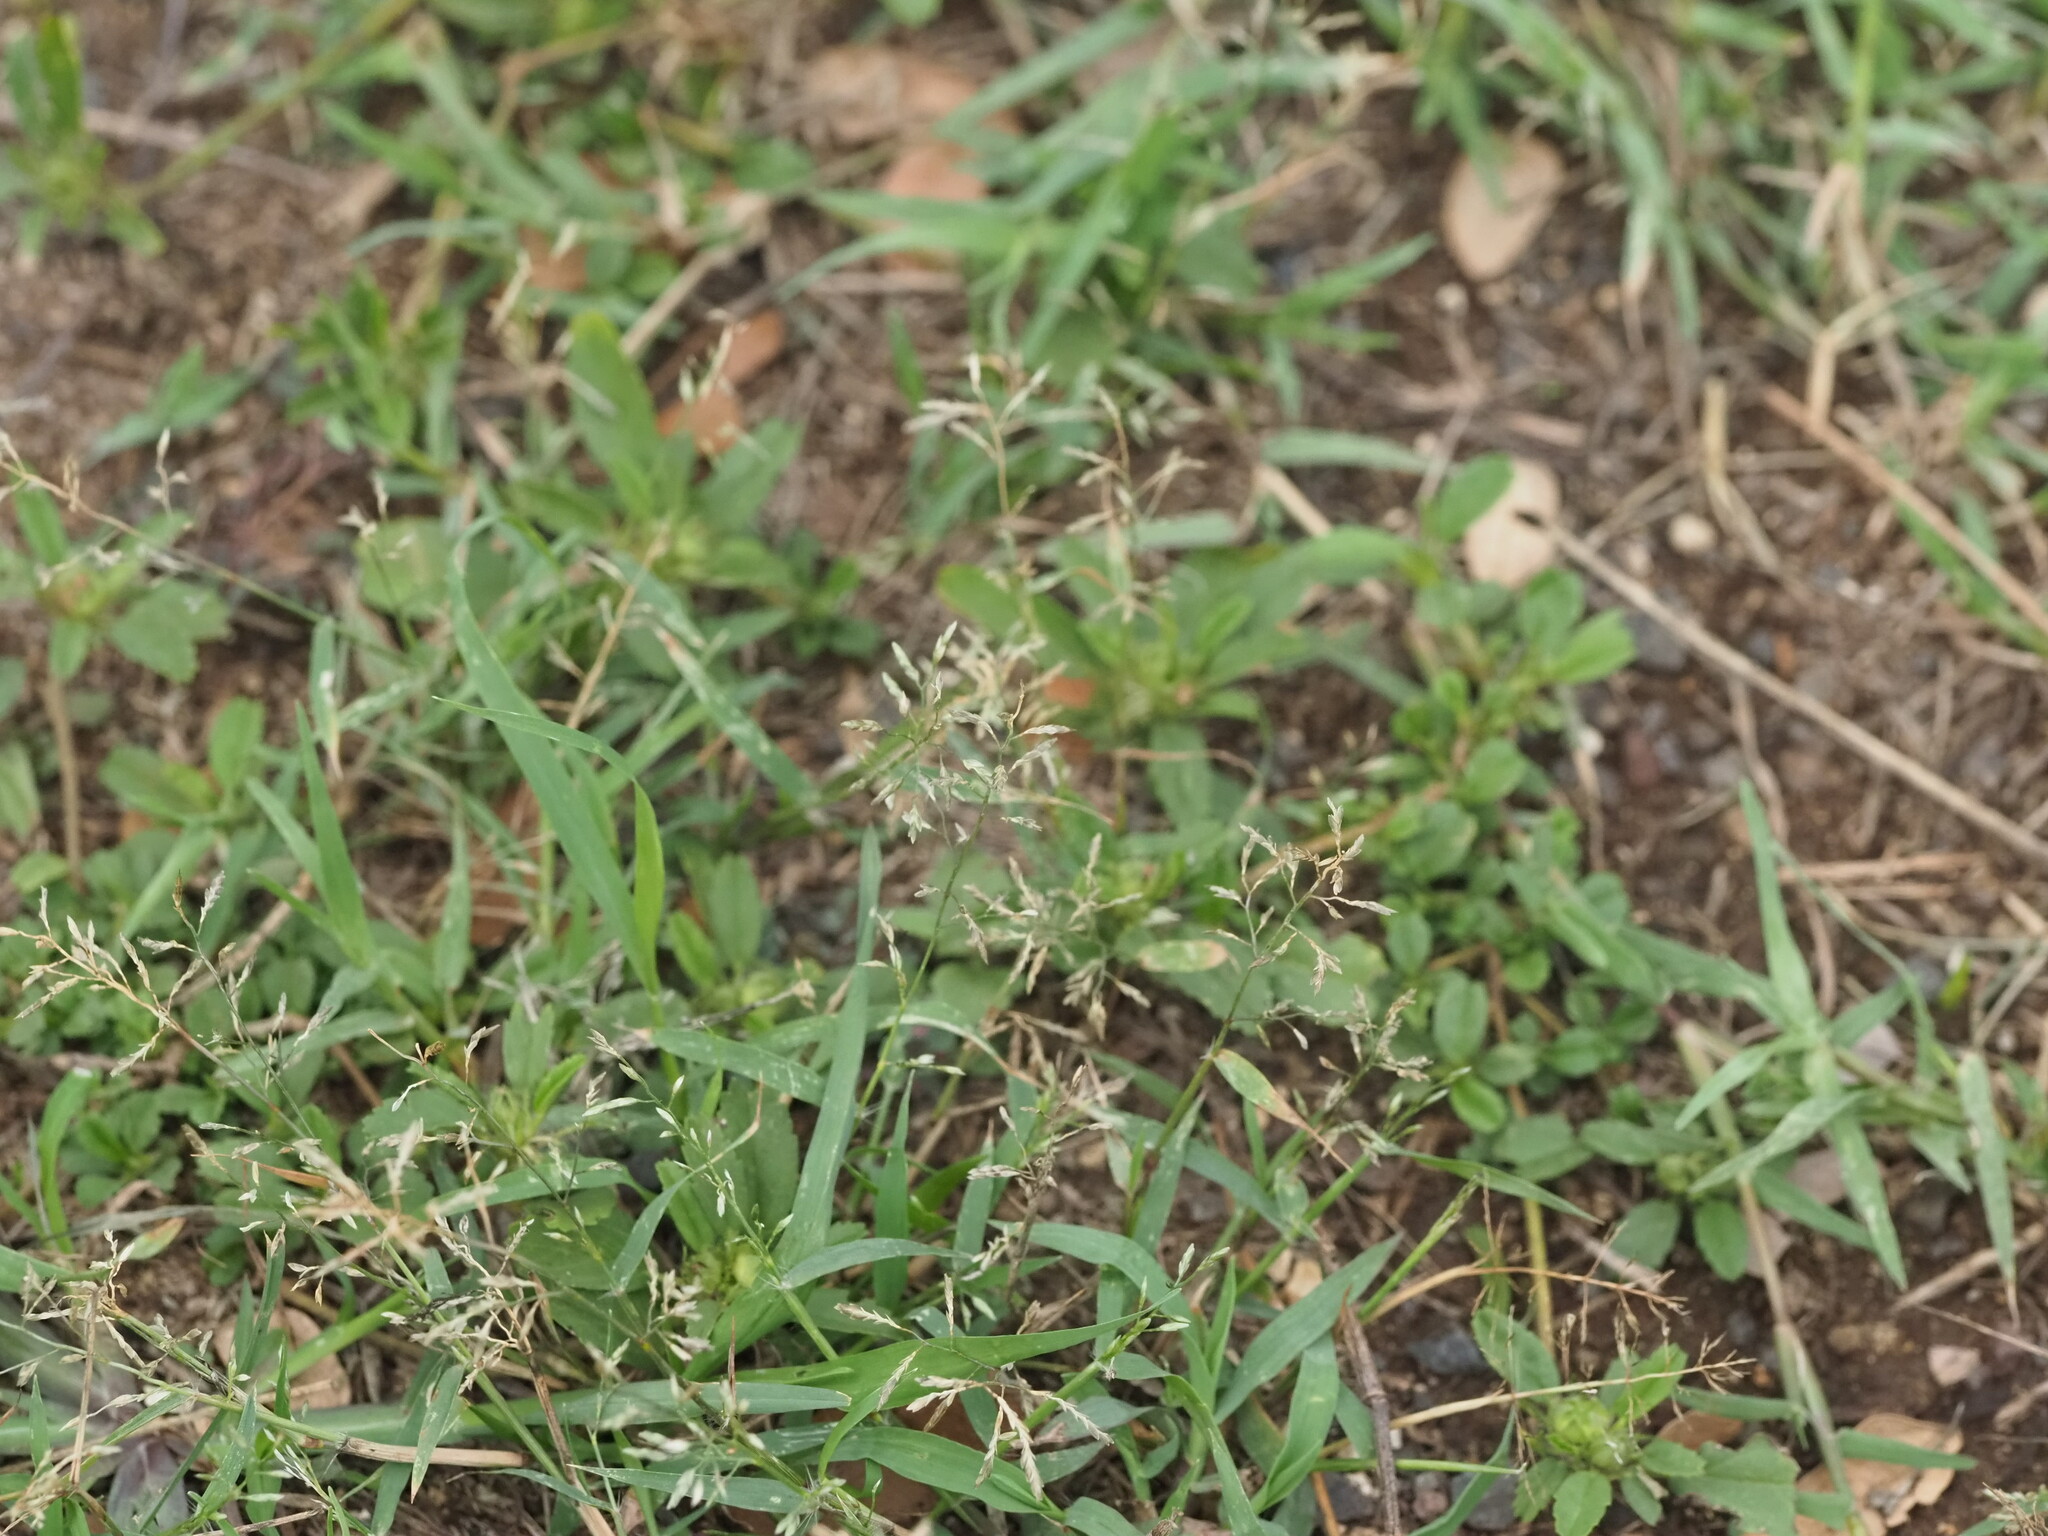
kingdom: Plantae
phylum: Tracheophyta
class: Liliopsida
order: Poales
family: Poaceae
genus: Eragrostis
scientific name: Eragrostis barrelieri
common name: Mediterranean lovegrass
